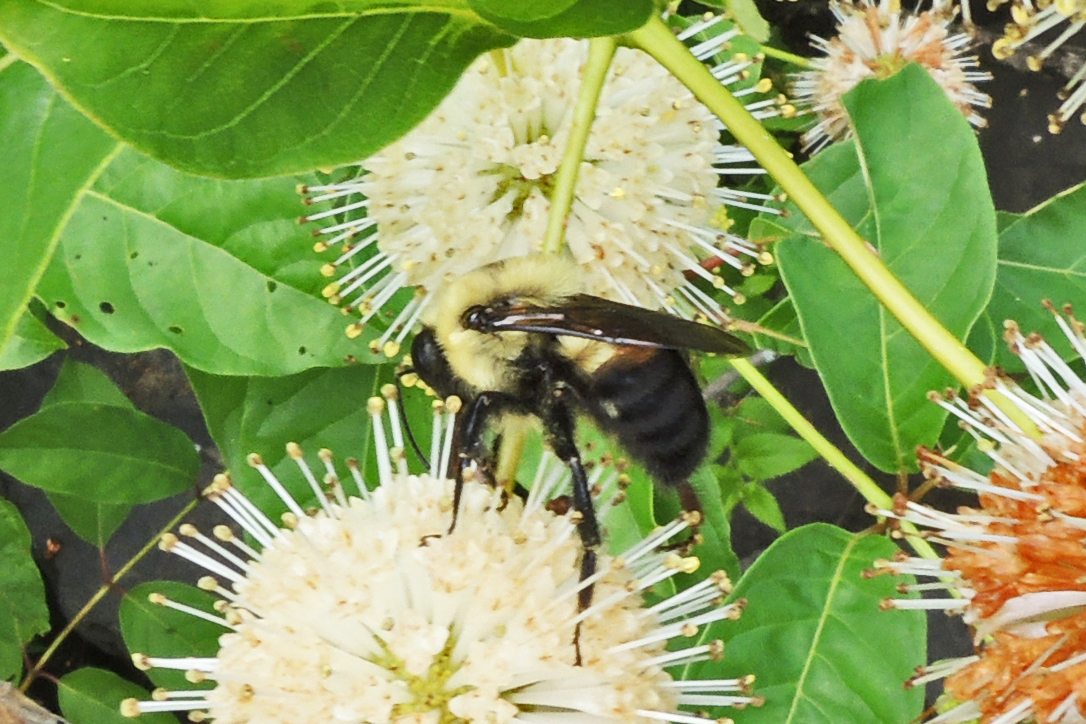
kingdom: Animalia
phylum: Arthropoda
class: Insecta
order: Hymenoptera
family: Apidae
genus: Bombus
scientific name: Bombus griseocollis
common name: Brown-belted bumble bee
